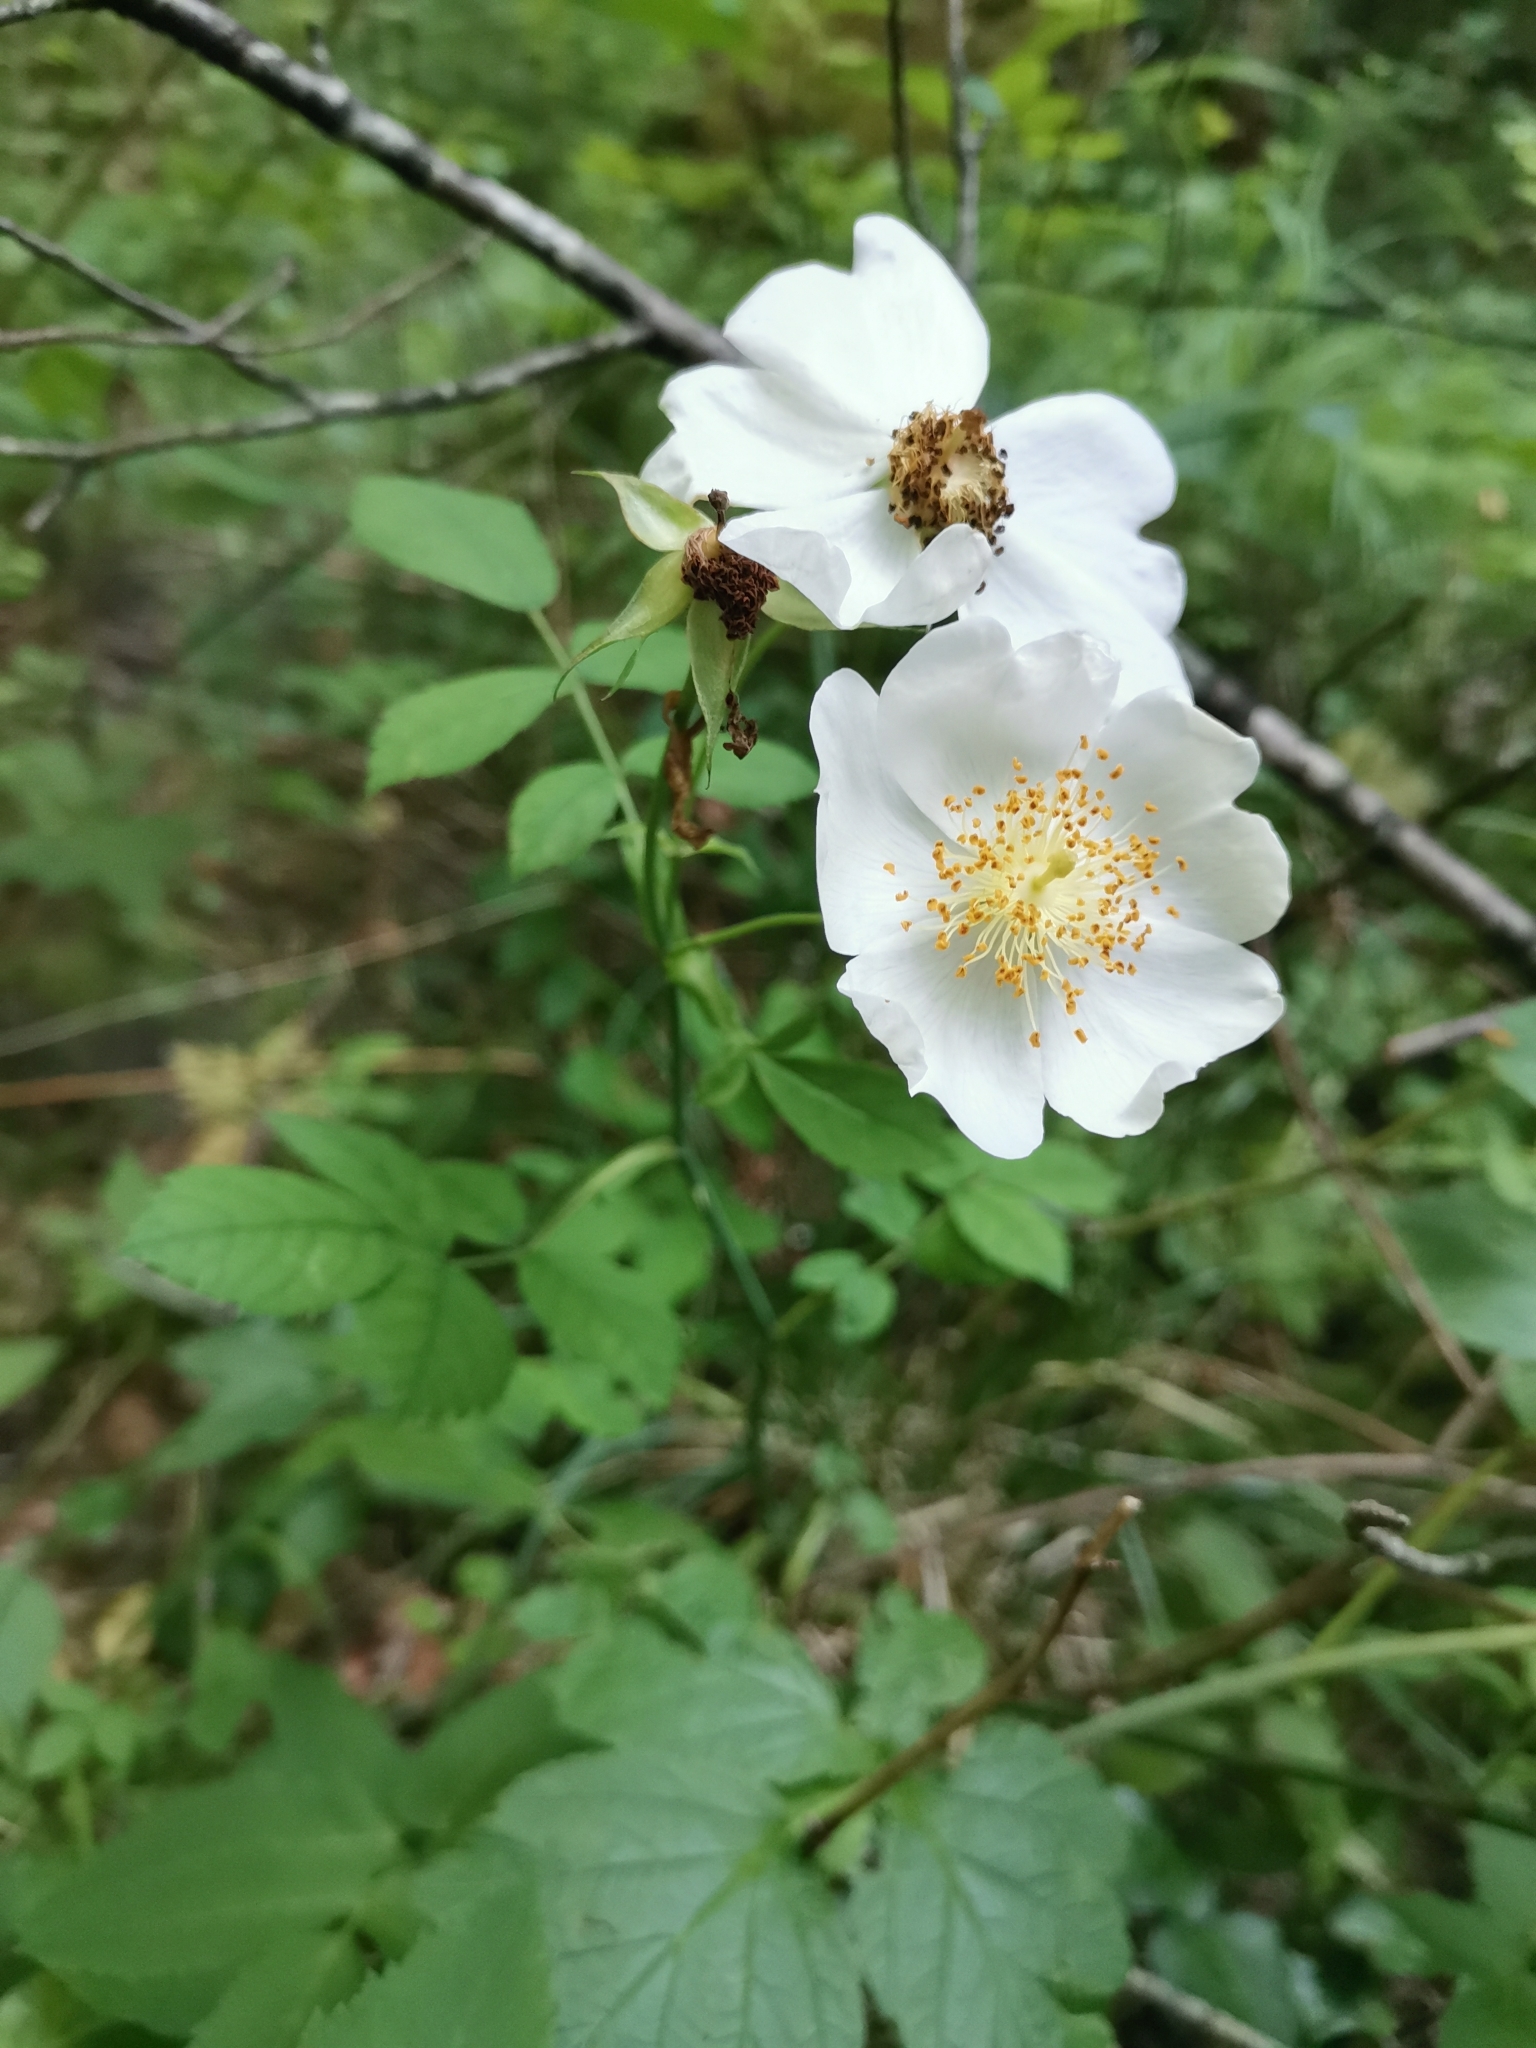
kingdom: Plantae
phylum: Tracheophyta
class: Magnoliopsida
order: Rosales
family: Rosaceae
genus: Rosa
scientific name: Rosa arvensis
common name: Field rose
